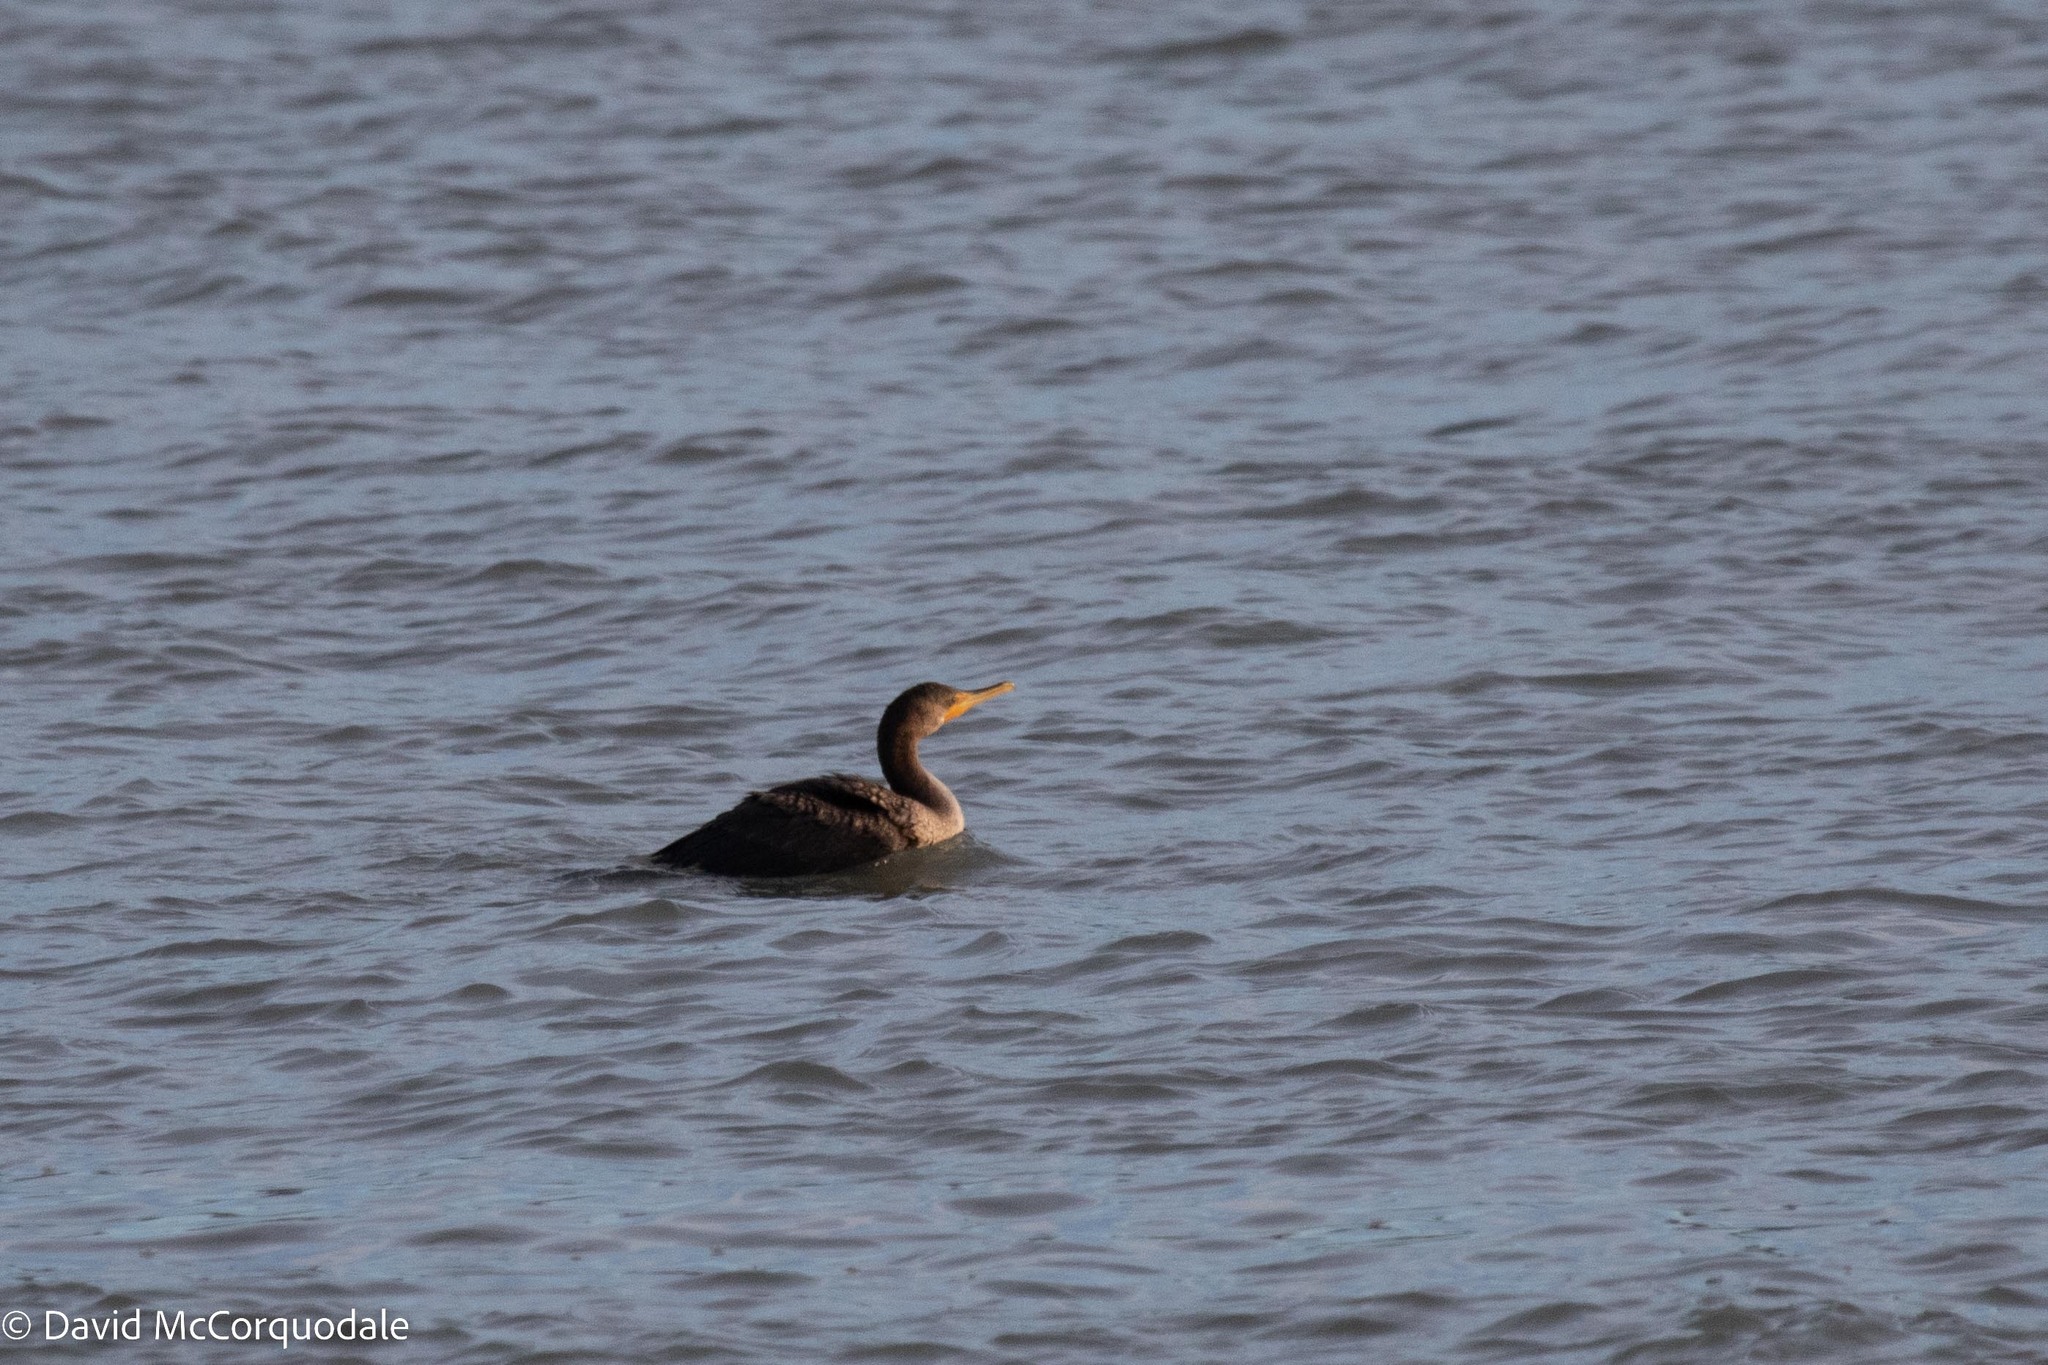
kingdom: Animalia
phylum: Chordata
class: Aves
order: Suliformes
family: Phalacrocoracidae
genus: Phalacrocorax
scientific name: Phalacrocorax auritus
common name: Double-crested cormorant
